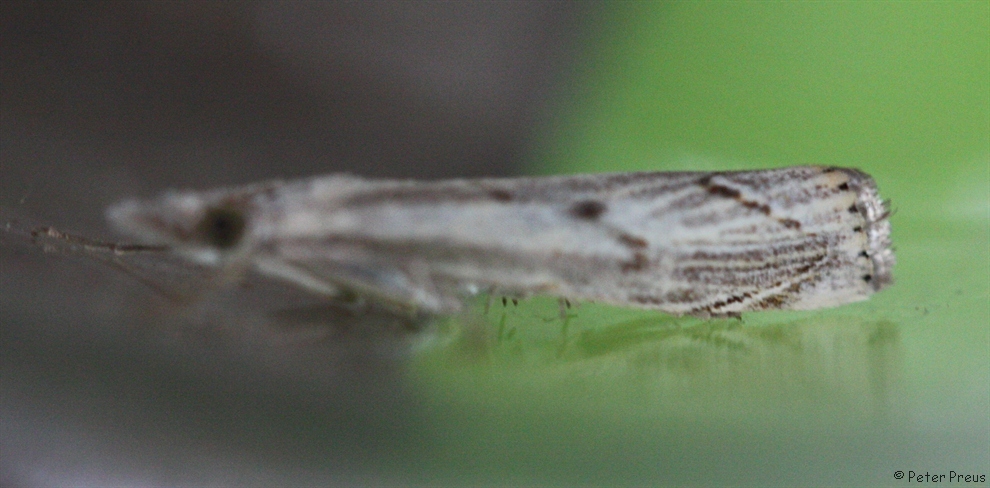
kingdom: Animalia
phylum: Arthropoda
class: Insecta
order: Lepidoptera
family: Crambidae
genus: Agriphila
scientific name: Agriphila geniculea
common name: Elbow-stripe grass-veneer
